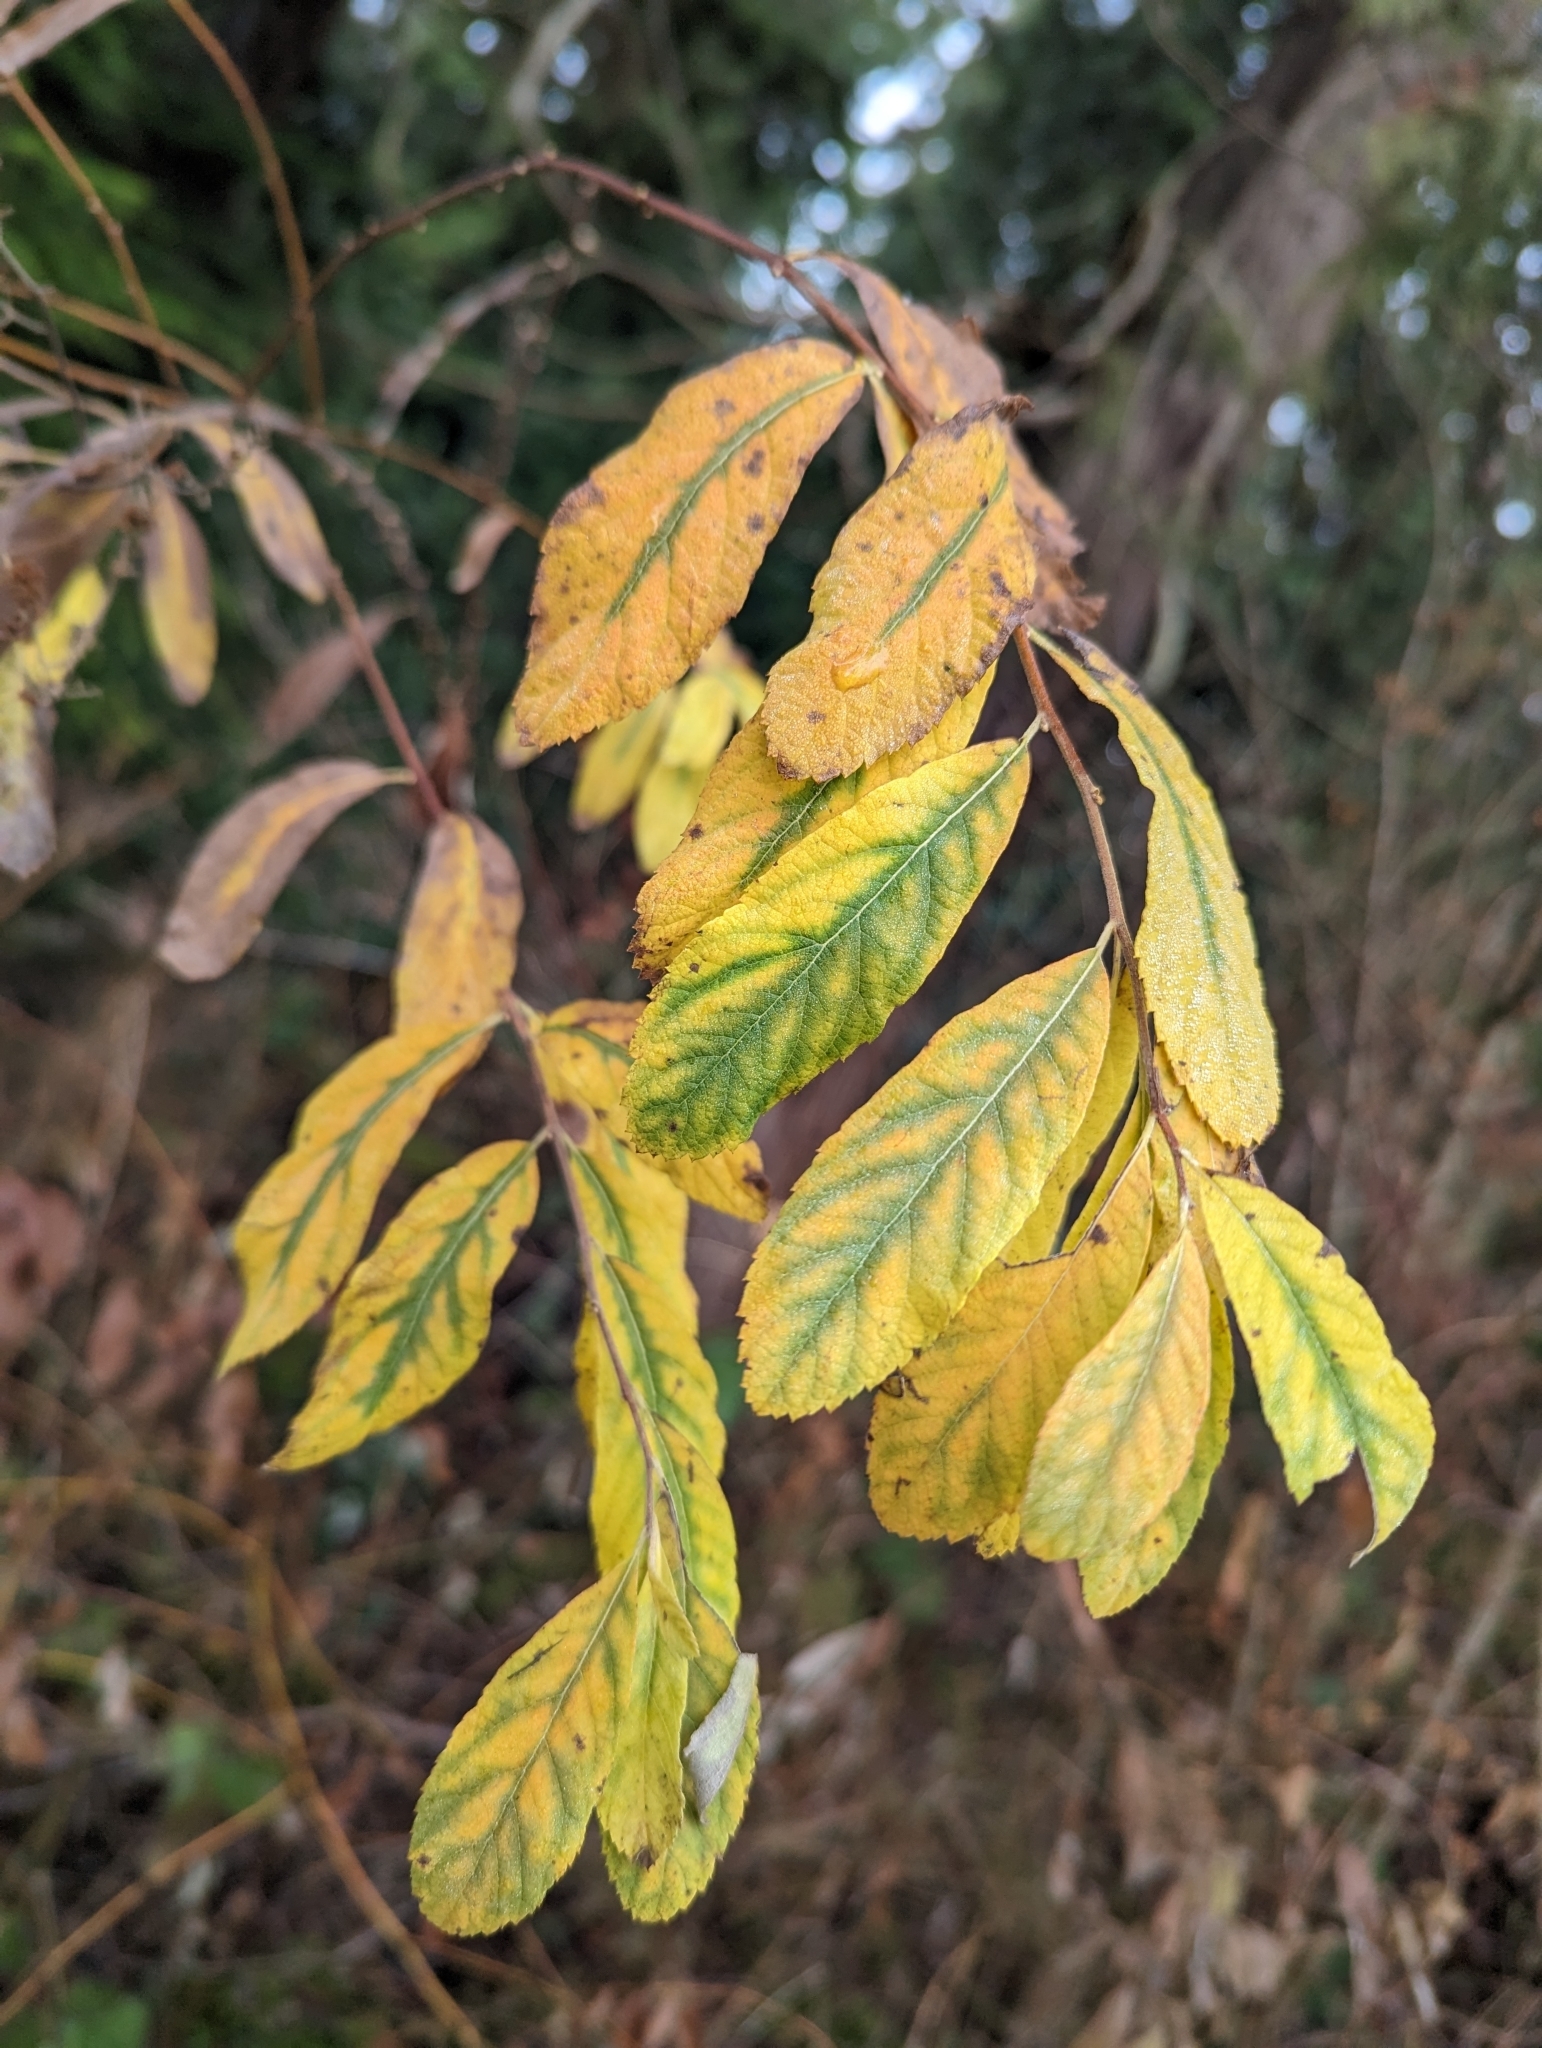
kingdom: Plantae
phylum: Tracheophyta
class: Magnoliopsida
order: Rosales
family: Rosaceae
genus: Spiraea
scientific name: Spiraea douglasii
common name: Steeplebush
